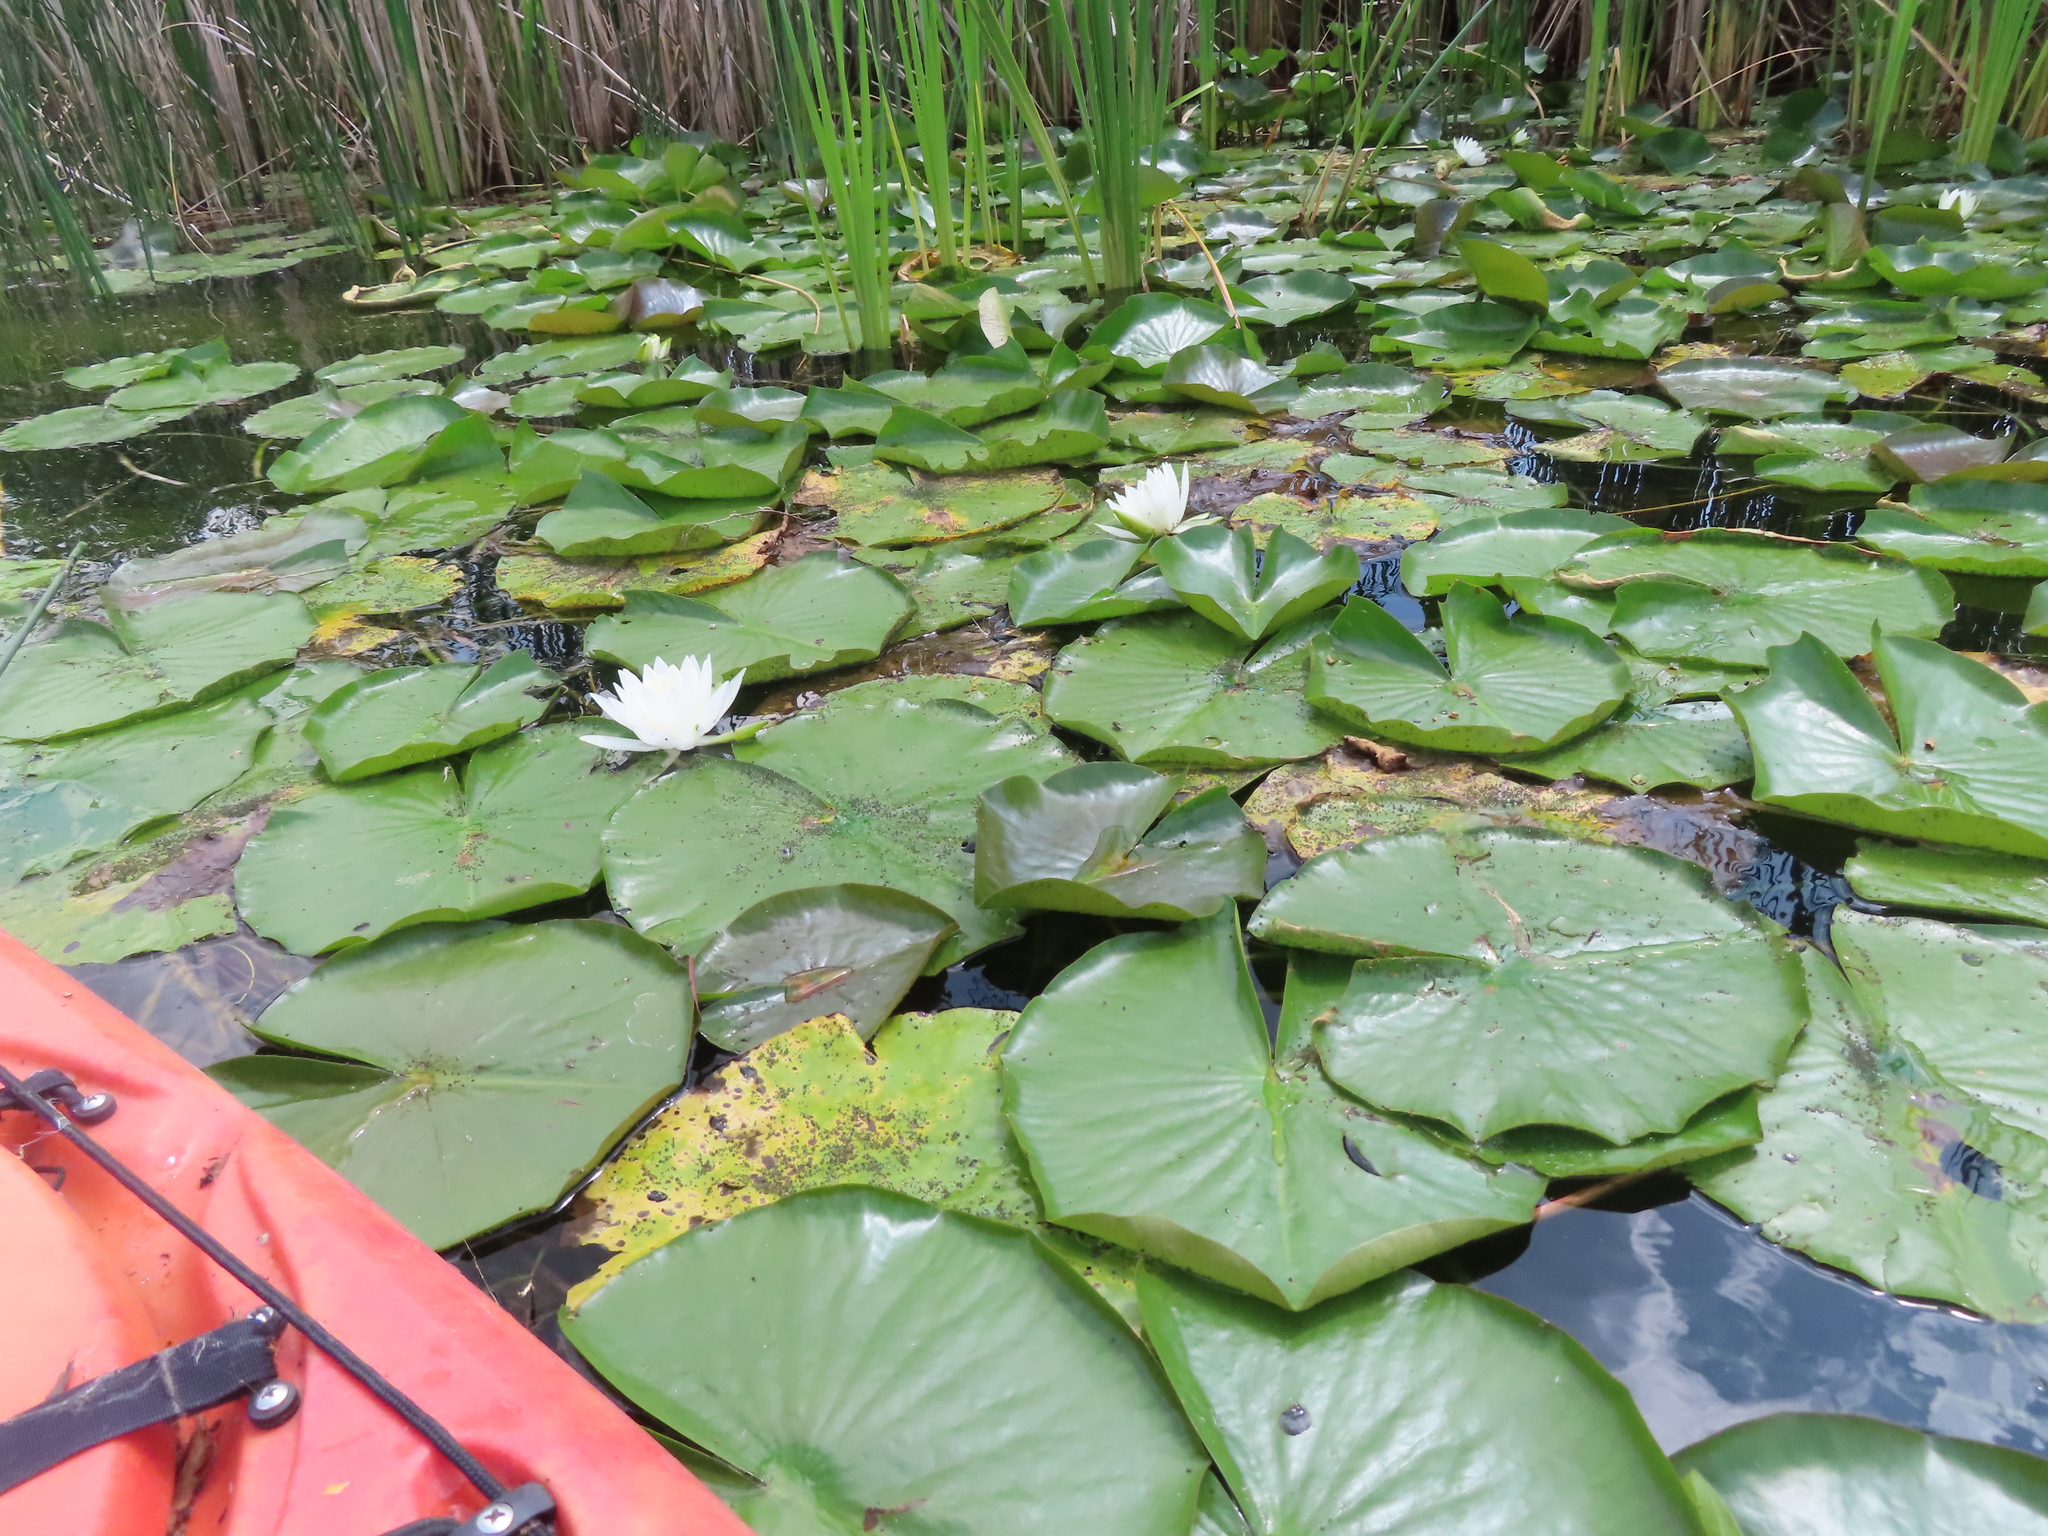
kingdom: Plantae
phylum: Tracheophyta
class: Magnoliopsida
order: Nymphaeales
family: Nymphaeaceae
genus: Nymphaea
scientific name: Nymphaea odorata
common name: Fragrant water-lily
